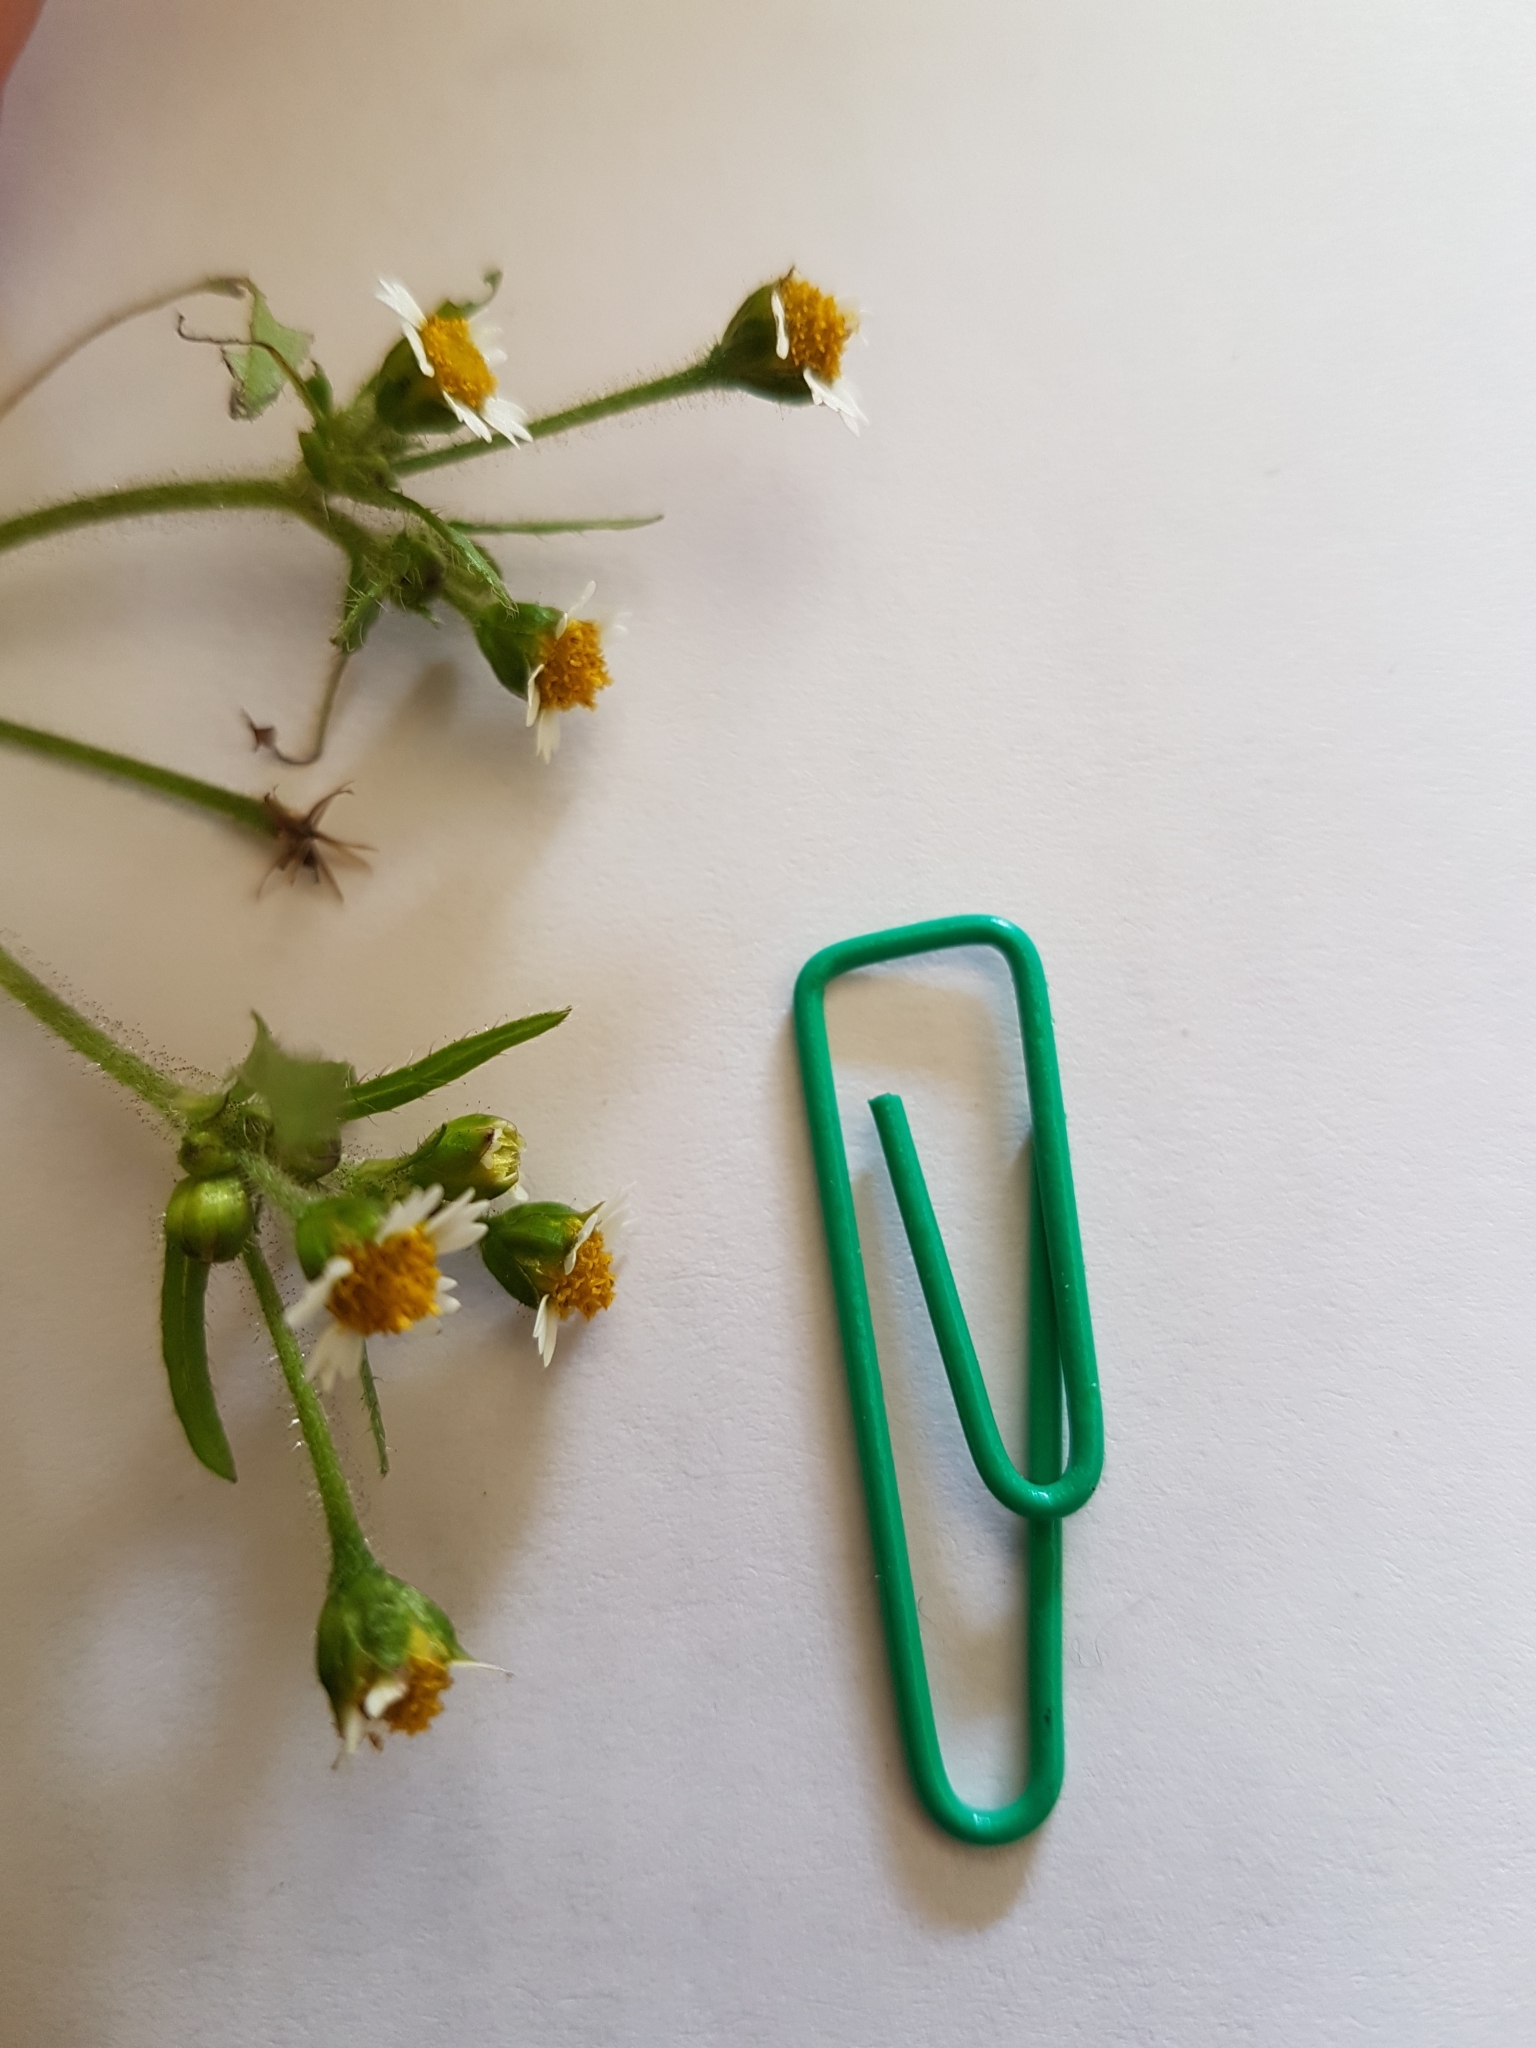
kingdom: Plantae
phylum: Tracheophyta
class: Magnoliopsida
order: Asterales
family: Asteraceae
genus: Galinsoga
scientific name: Galinsoga quadriradiata
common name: Shaggy soldier
